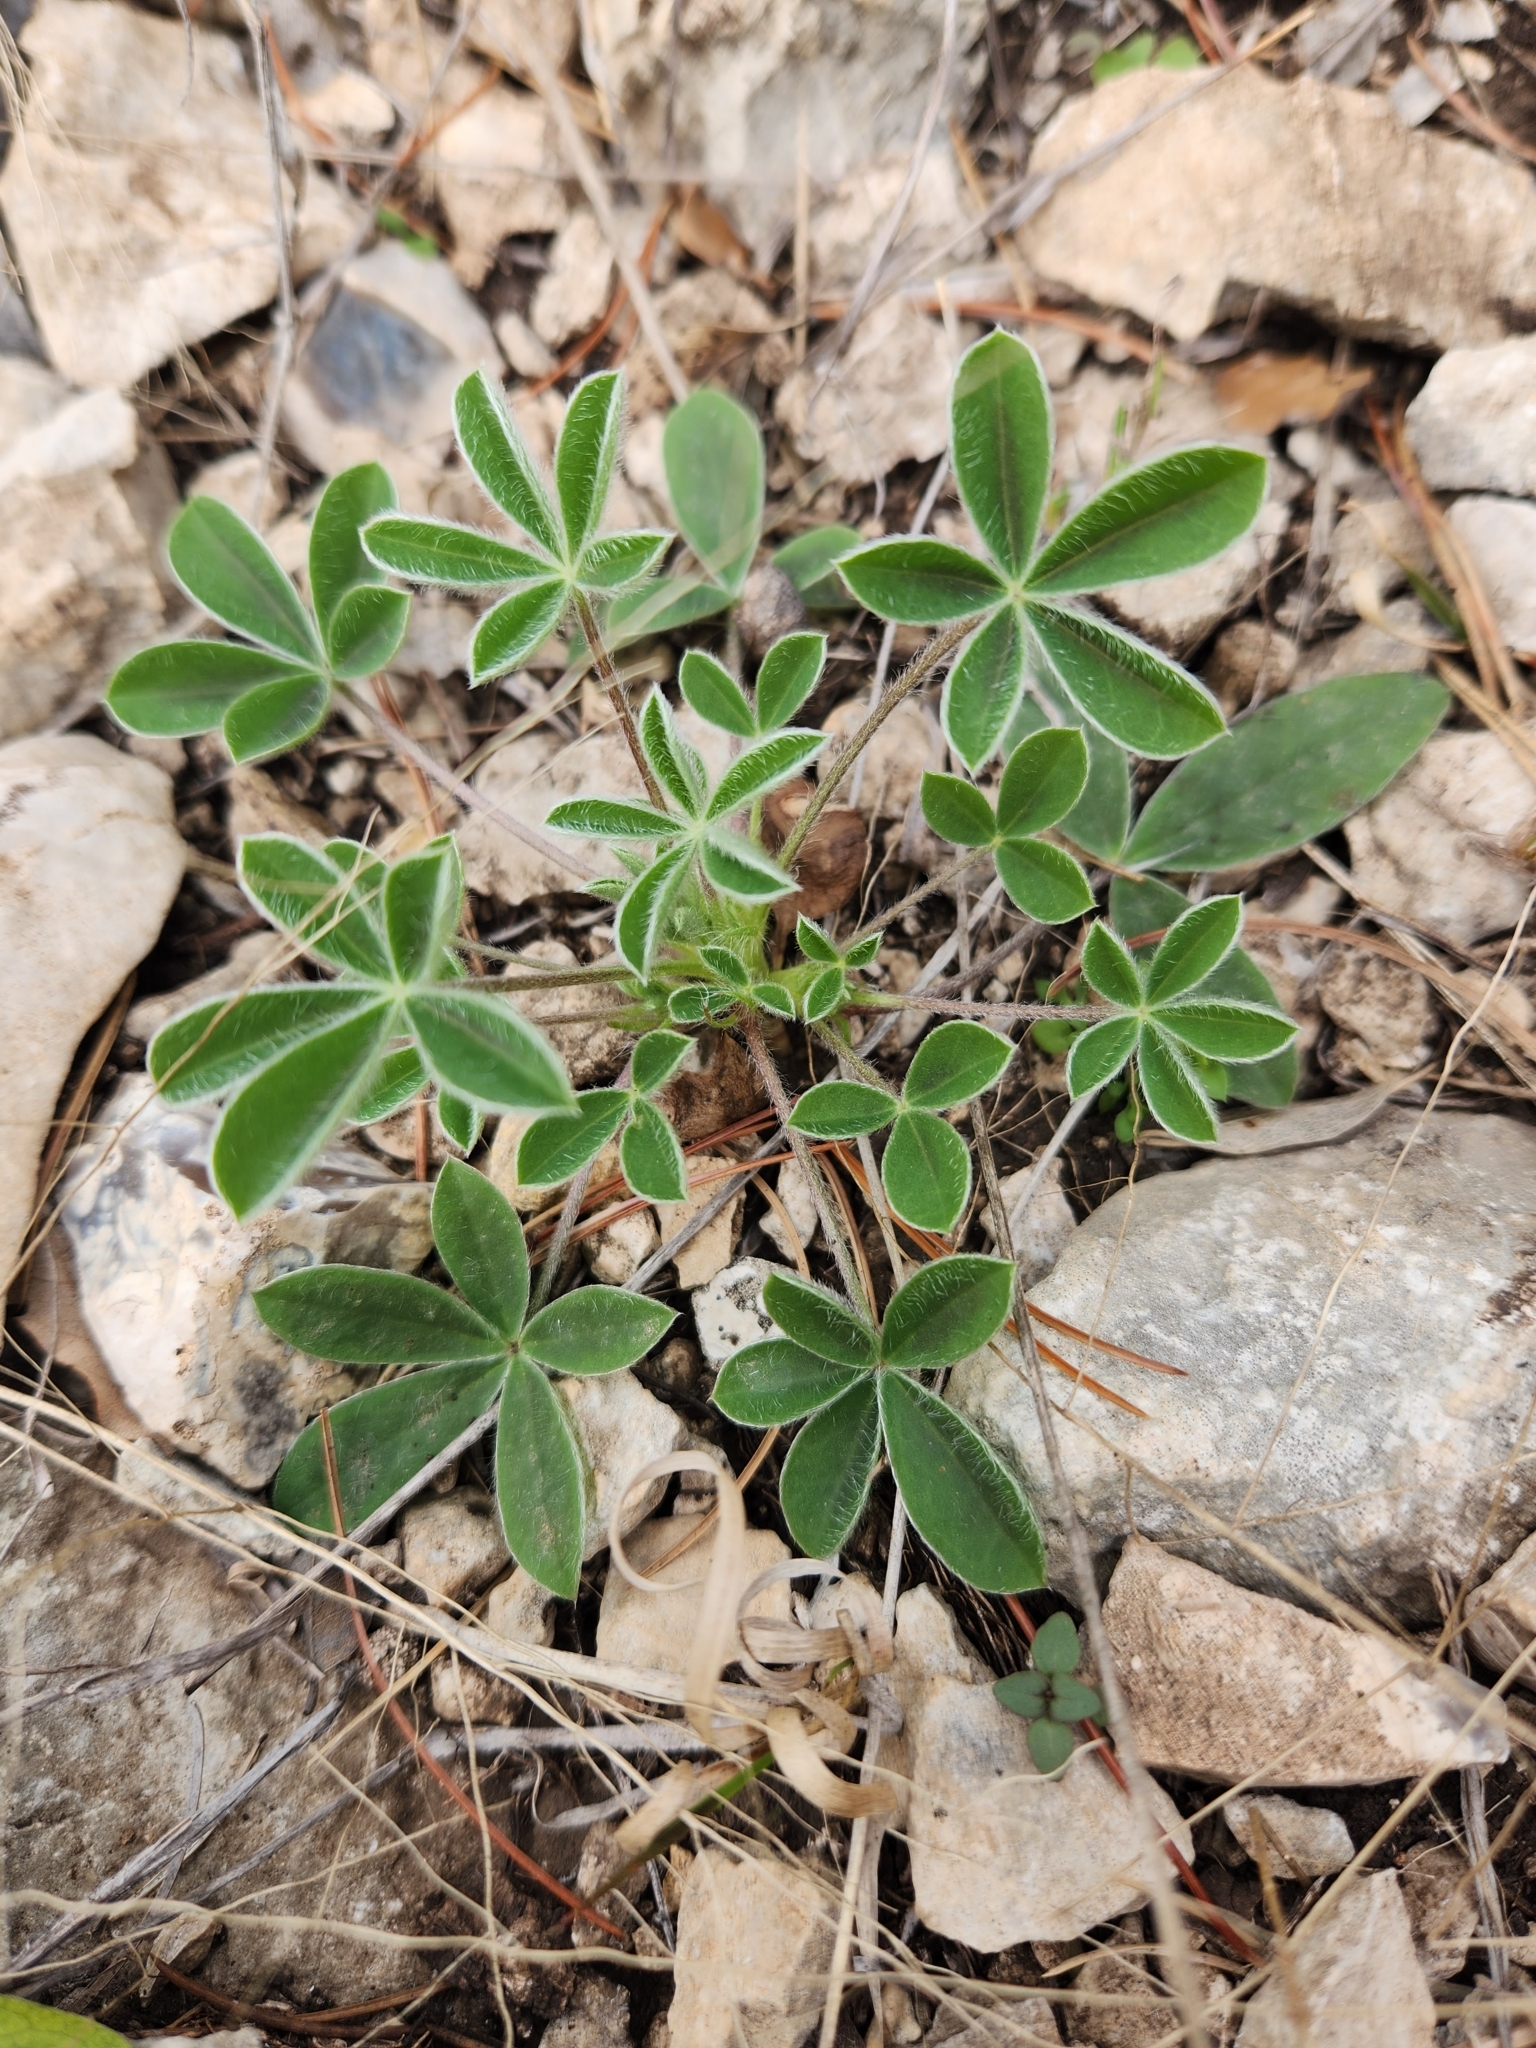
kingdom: Plantae
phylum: Tracheophyta
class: Magnoliopsida
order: Fabales
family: Fabaceae
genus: Lupinus
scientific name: Lupinus texensis
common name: Texas bluebonnet
